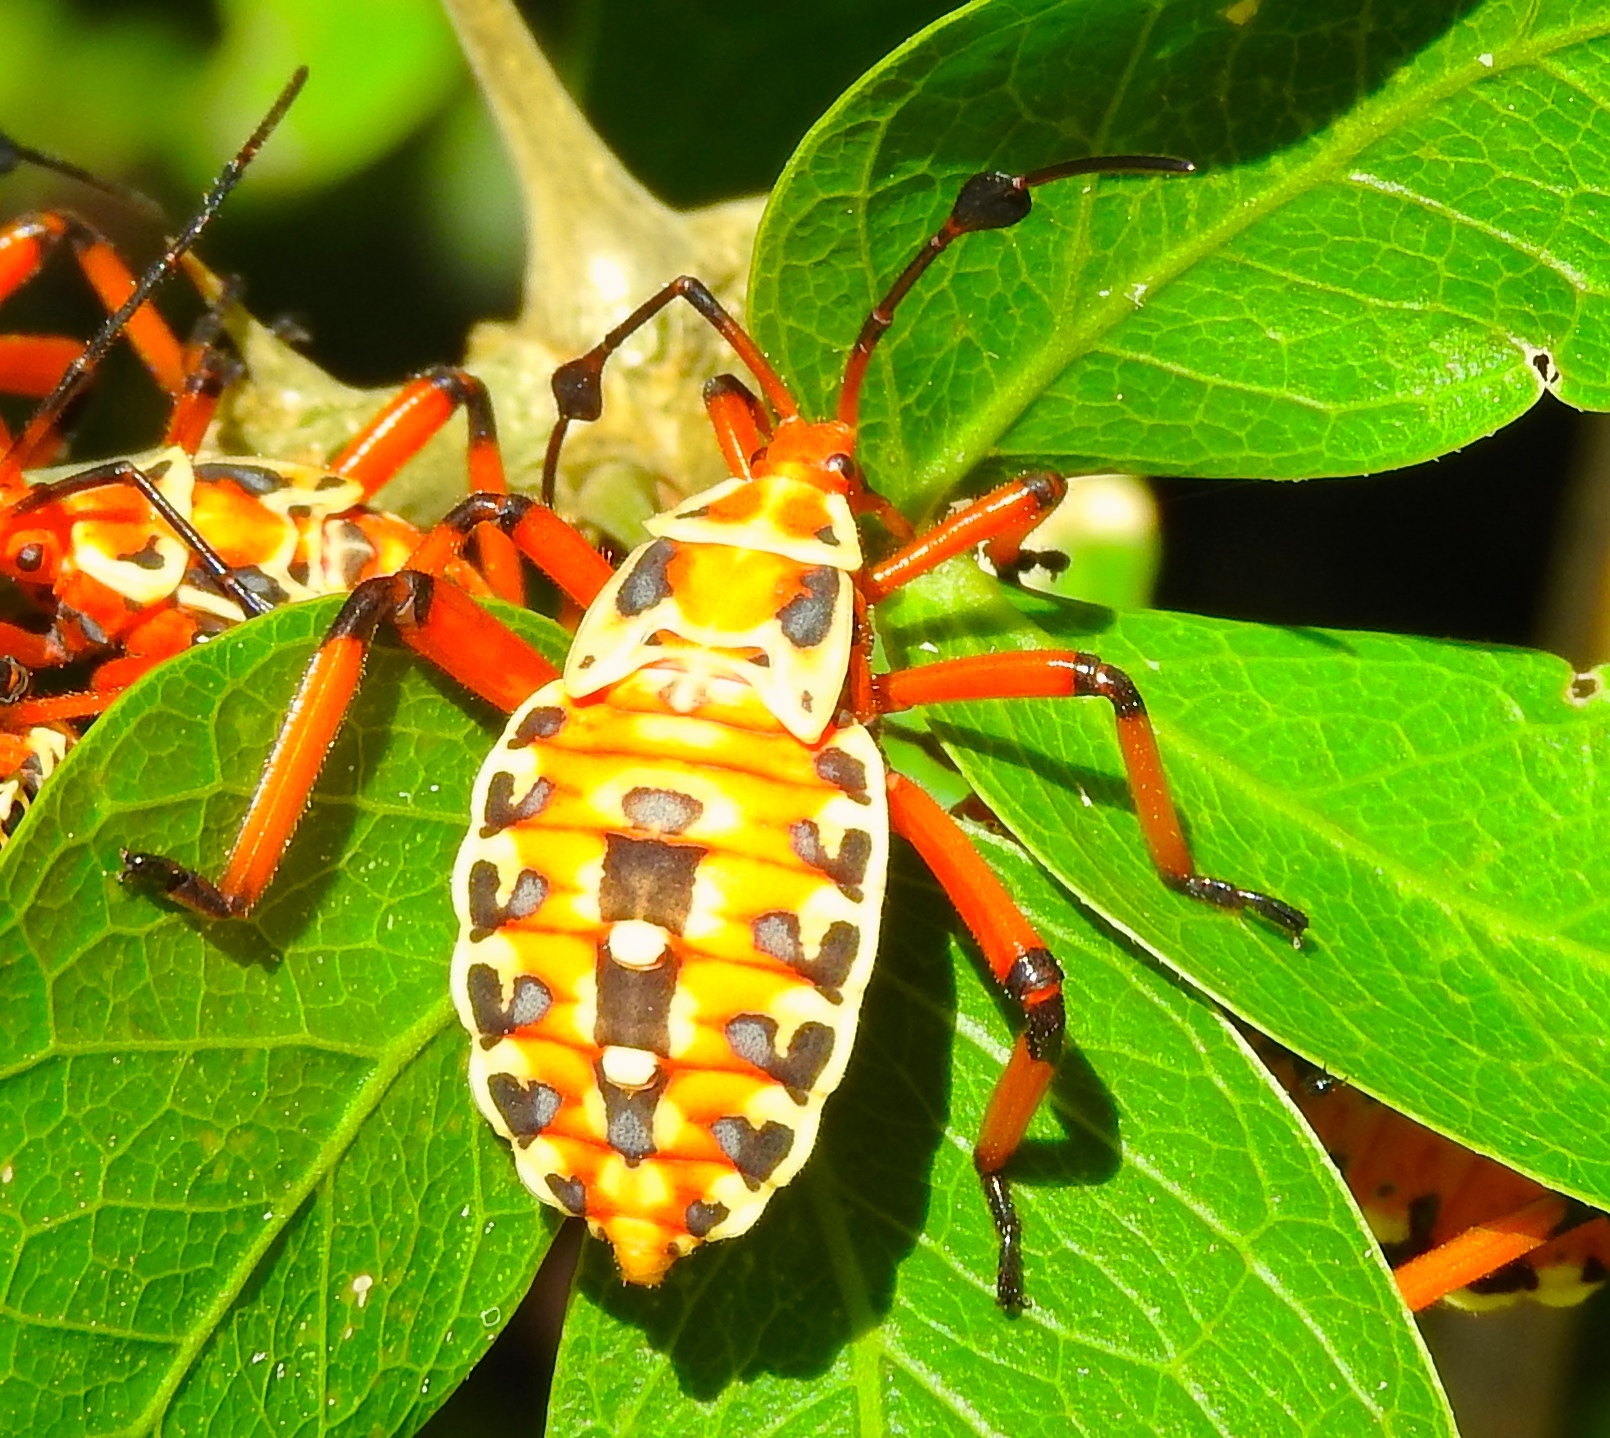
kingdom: Animalia
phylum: Arthropoda
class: Insecta
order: Hemiptera
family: Coreidae
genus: Pachylis
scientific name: Pachylis nervosus
